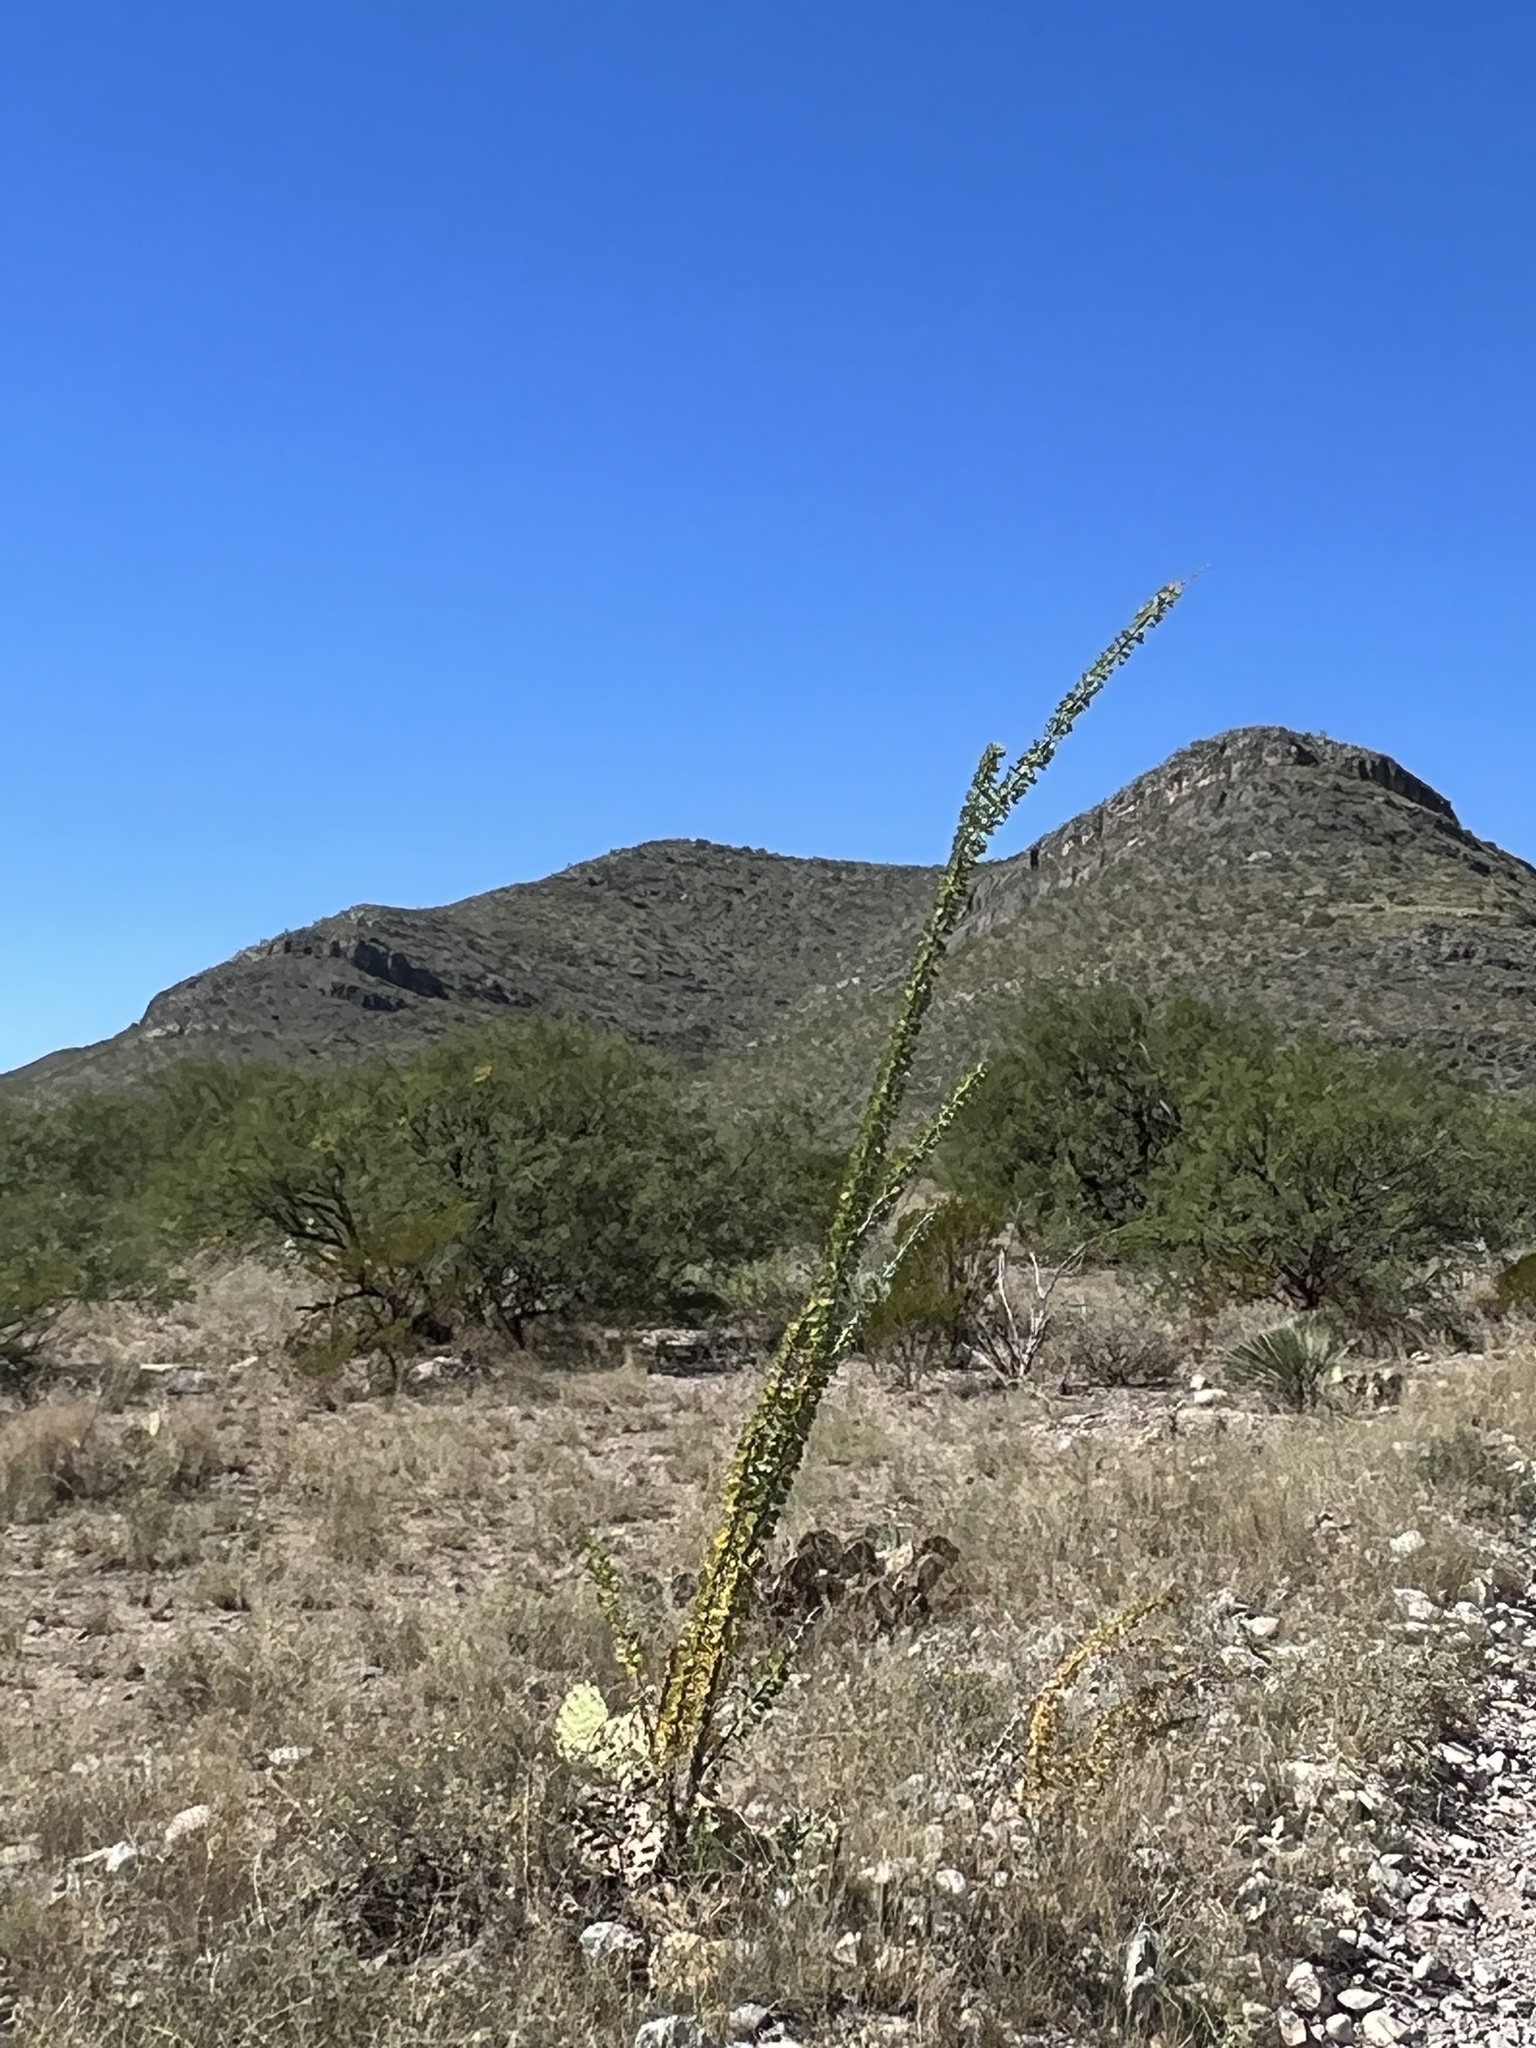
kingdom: Plantae
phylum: Tracheophyta
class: Magnoliopsida
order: Ericales
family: Fouquieriaceae
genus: Fouquieria
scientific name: Fouquieria splendens
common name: Vine-cactus
